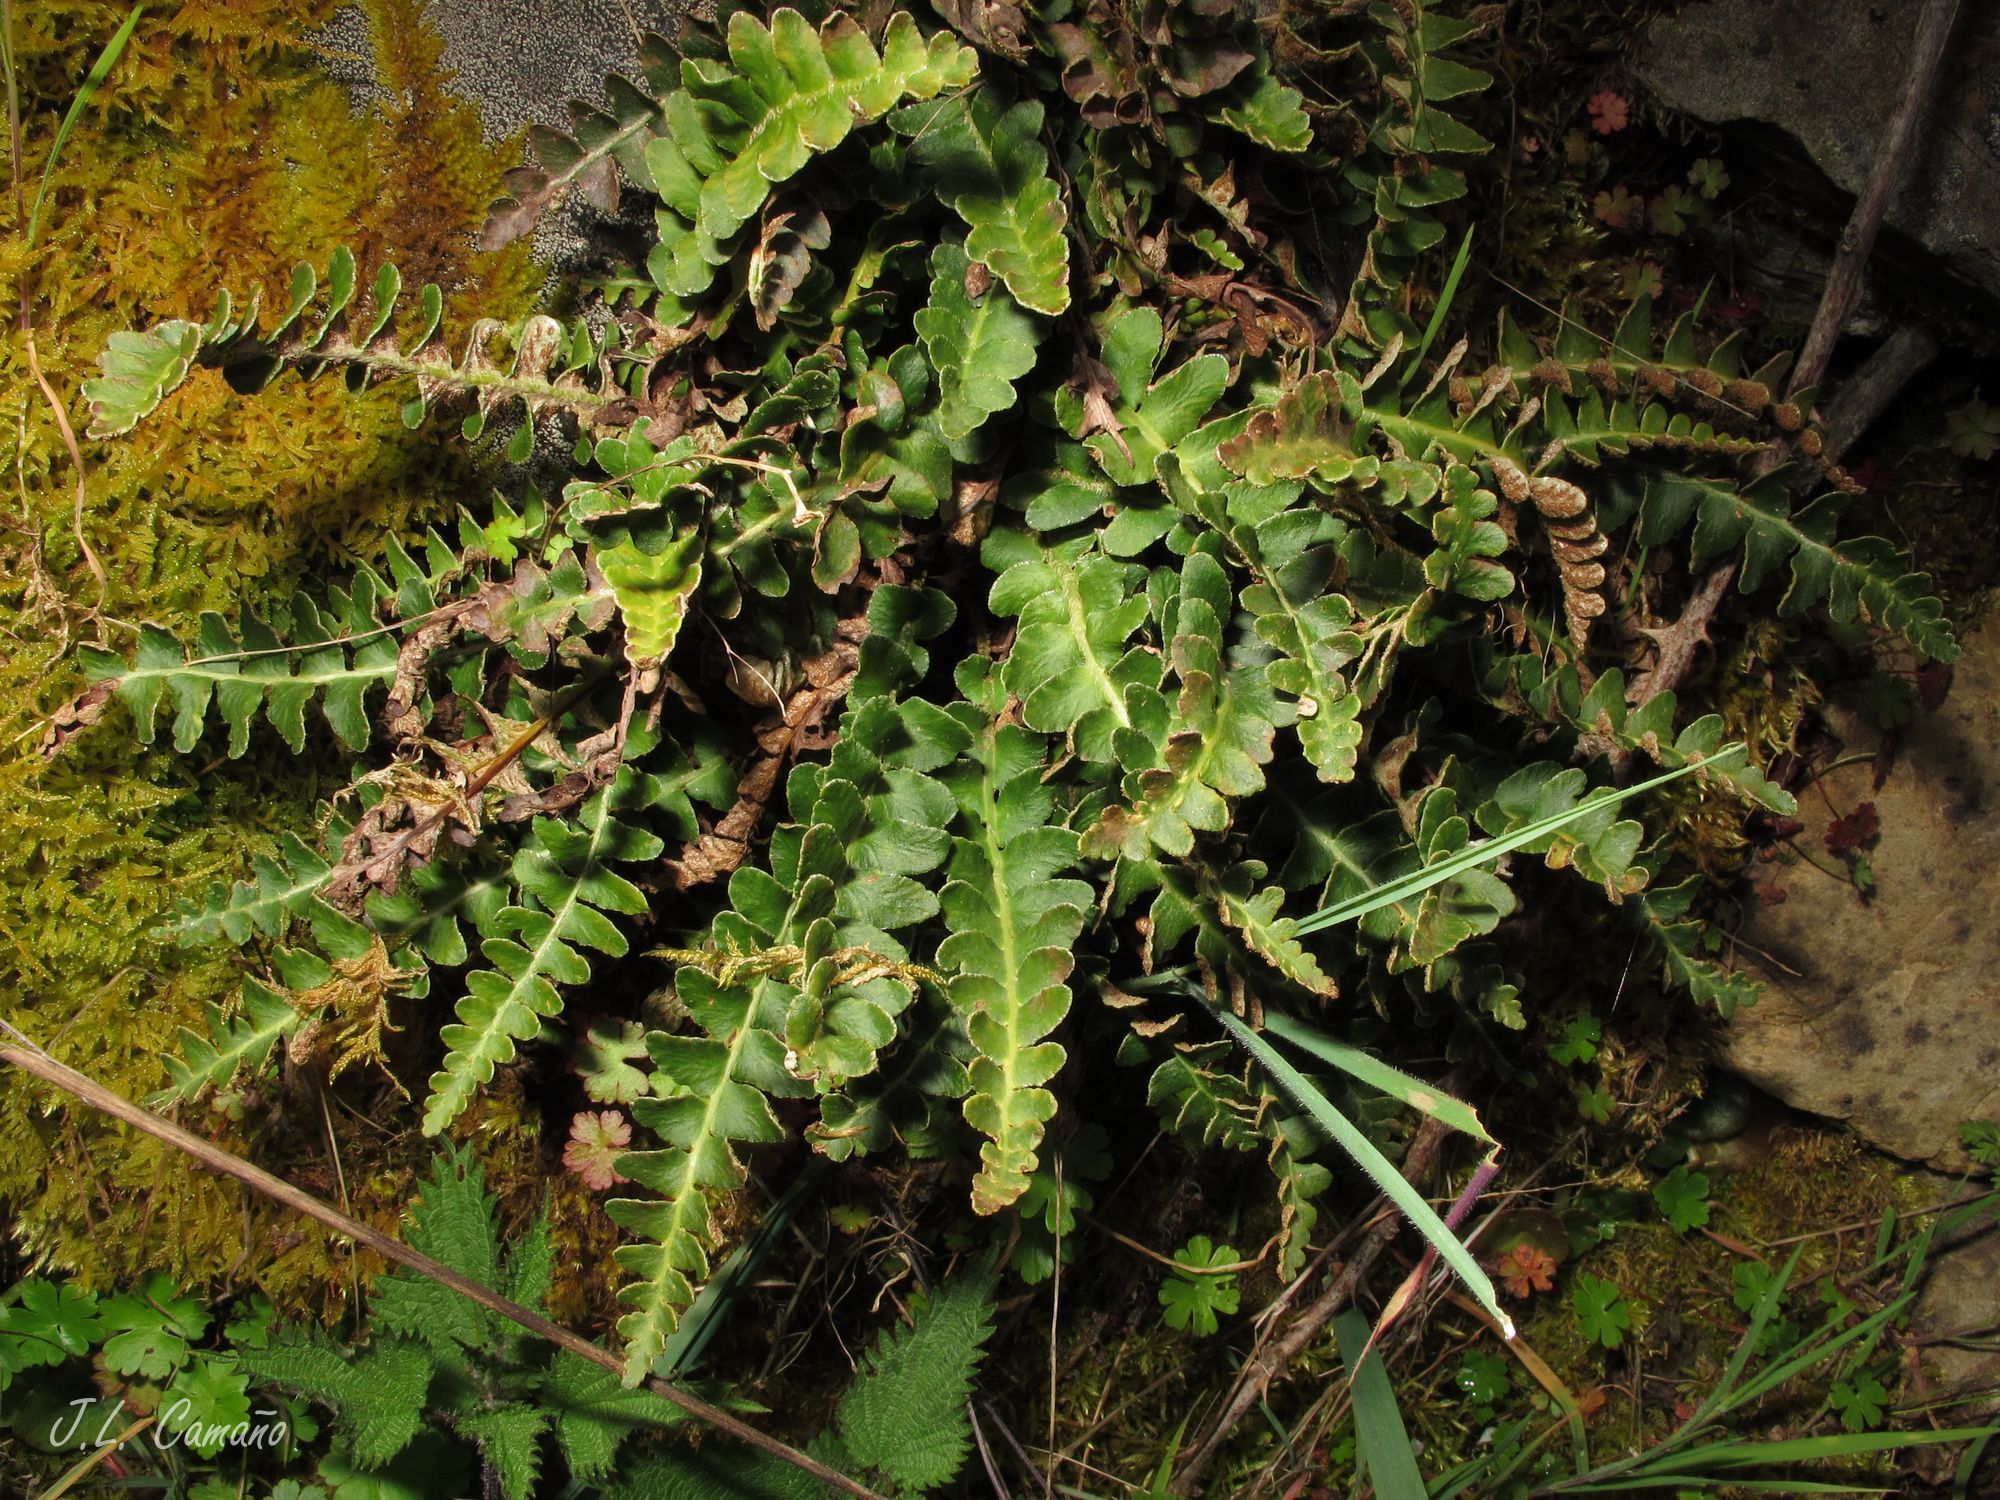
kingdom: Plantae
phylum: Tracheophyta
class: Polypodiopsida
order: Polypodiales
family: Aspleniaceae
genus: Asplenium
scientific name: Asplenium ceterach
